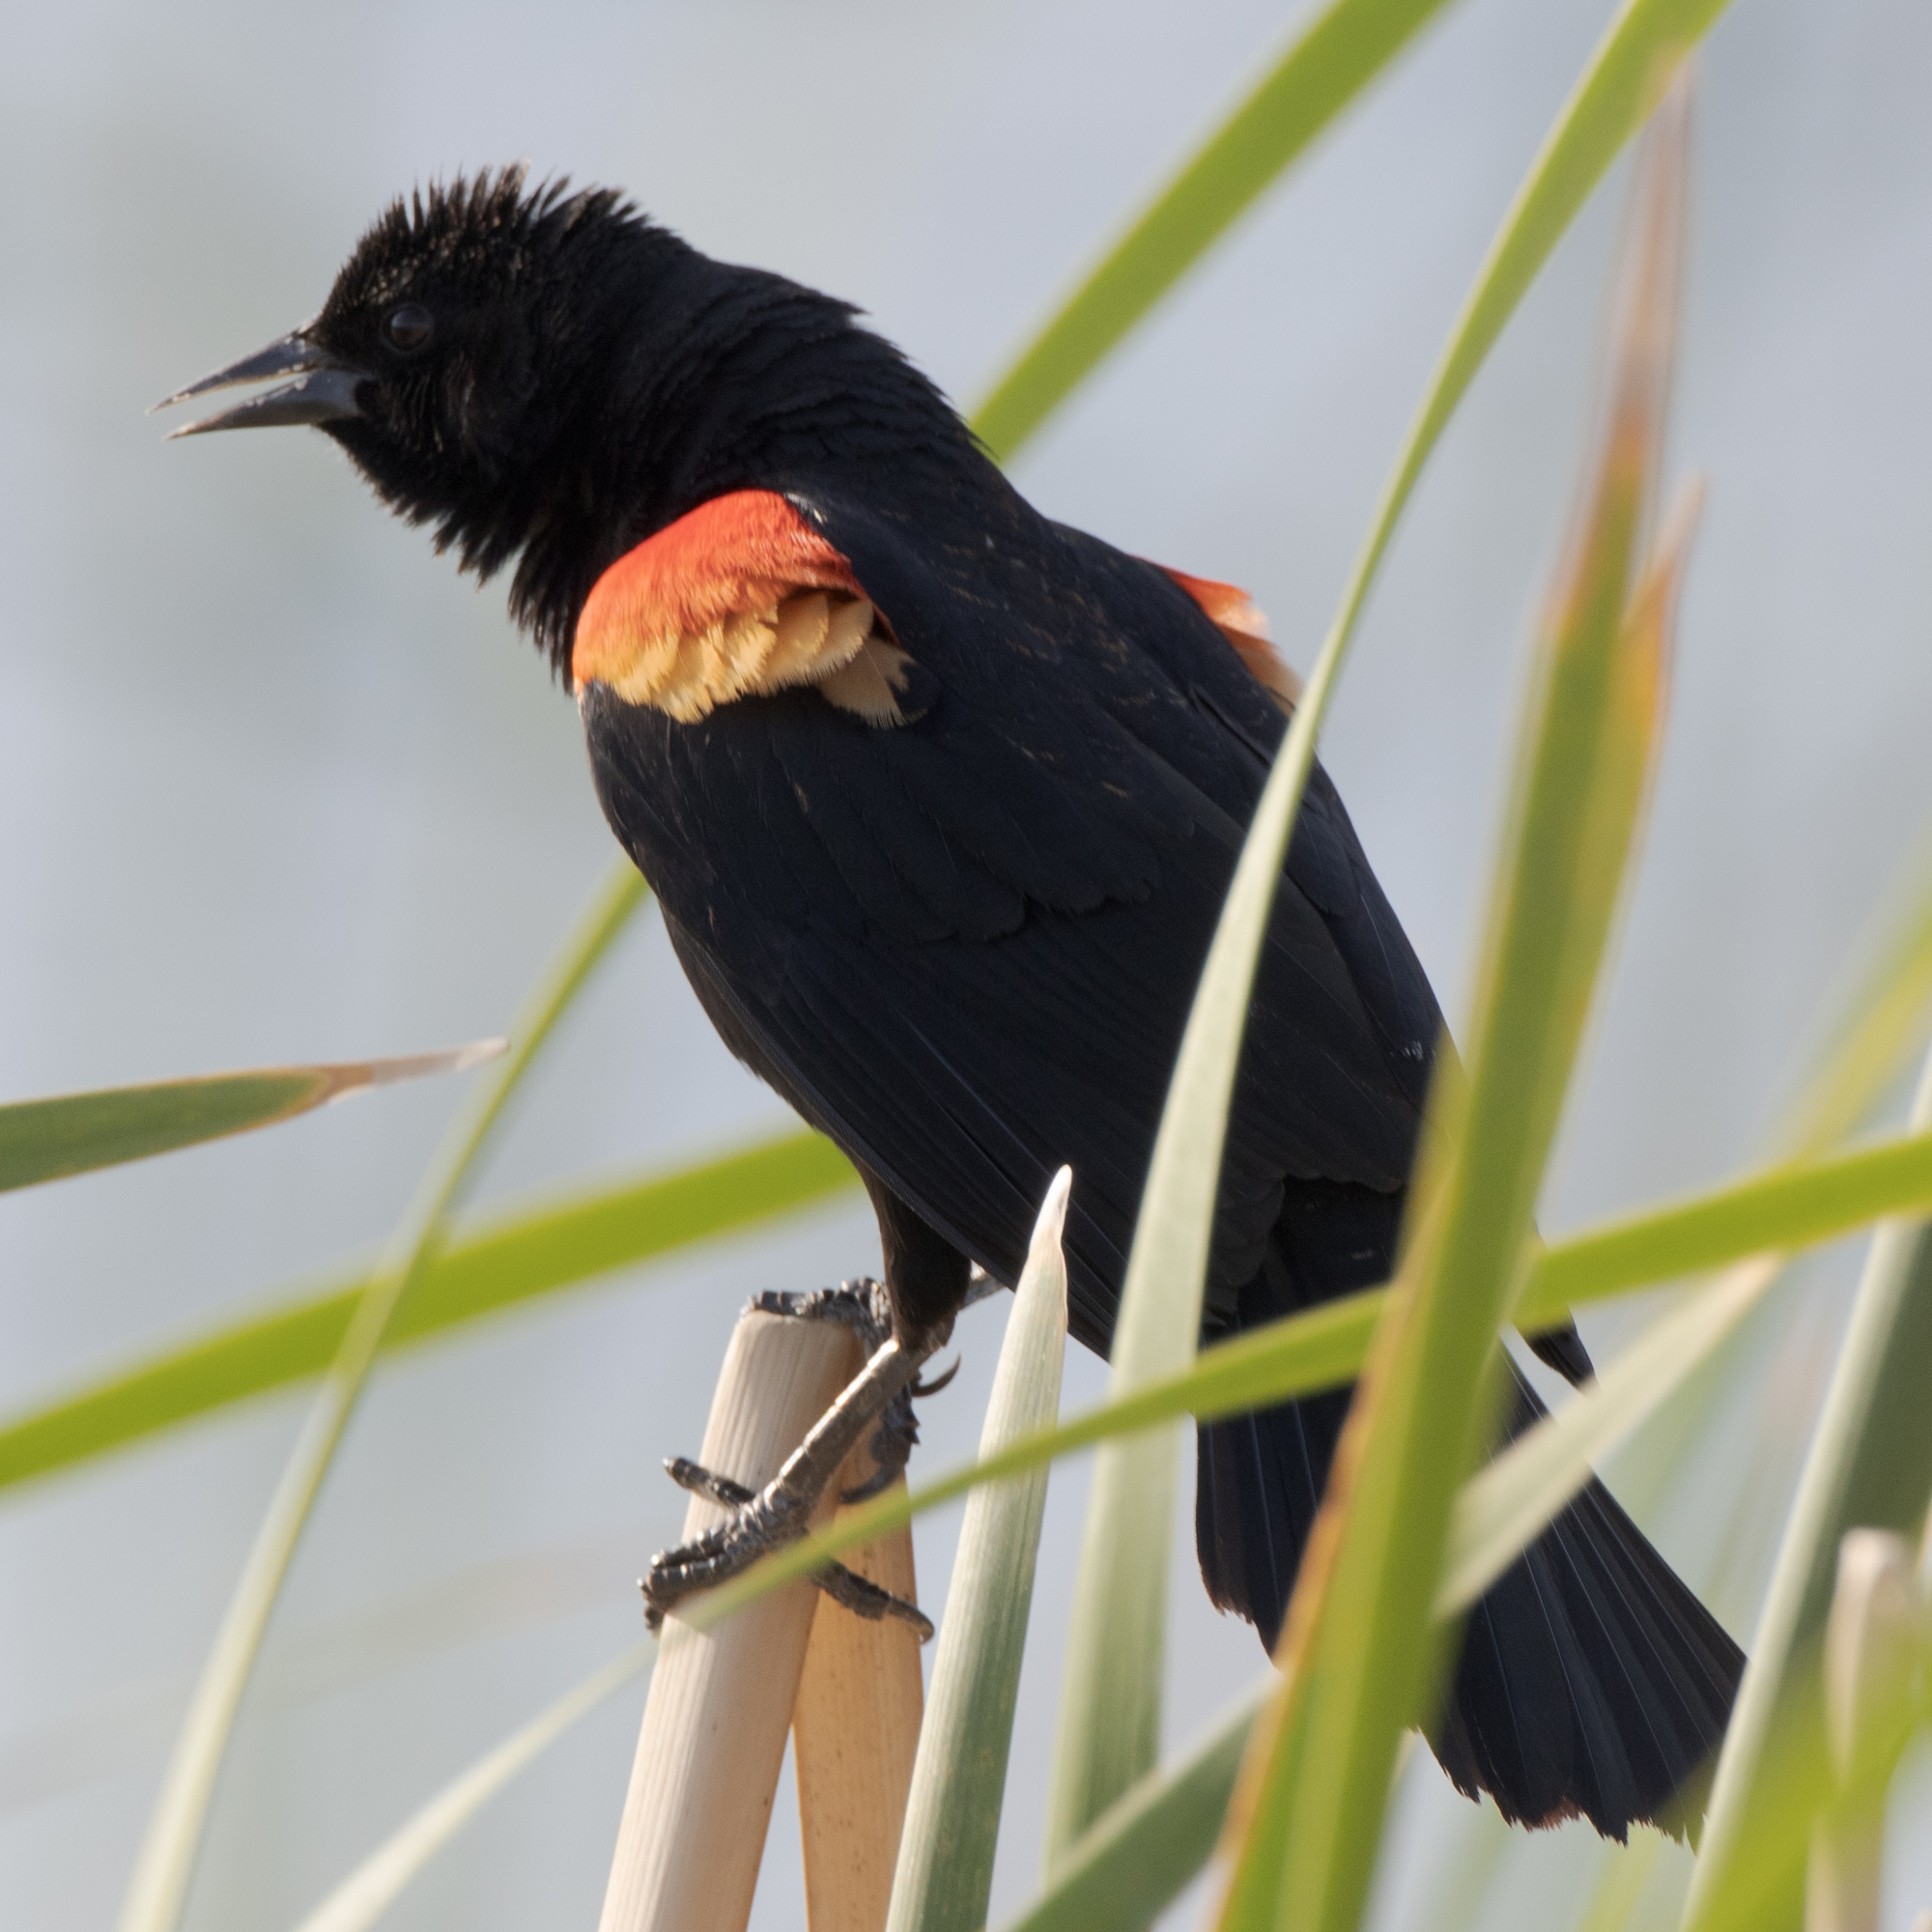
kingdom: Animalia
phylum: Chordata
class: Aves
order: Passeriformes
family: Icteridae
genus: Agelaius
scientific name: Agelaius phoeniceus
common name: Red-winged blackbird
